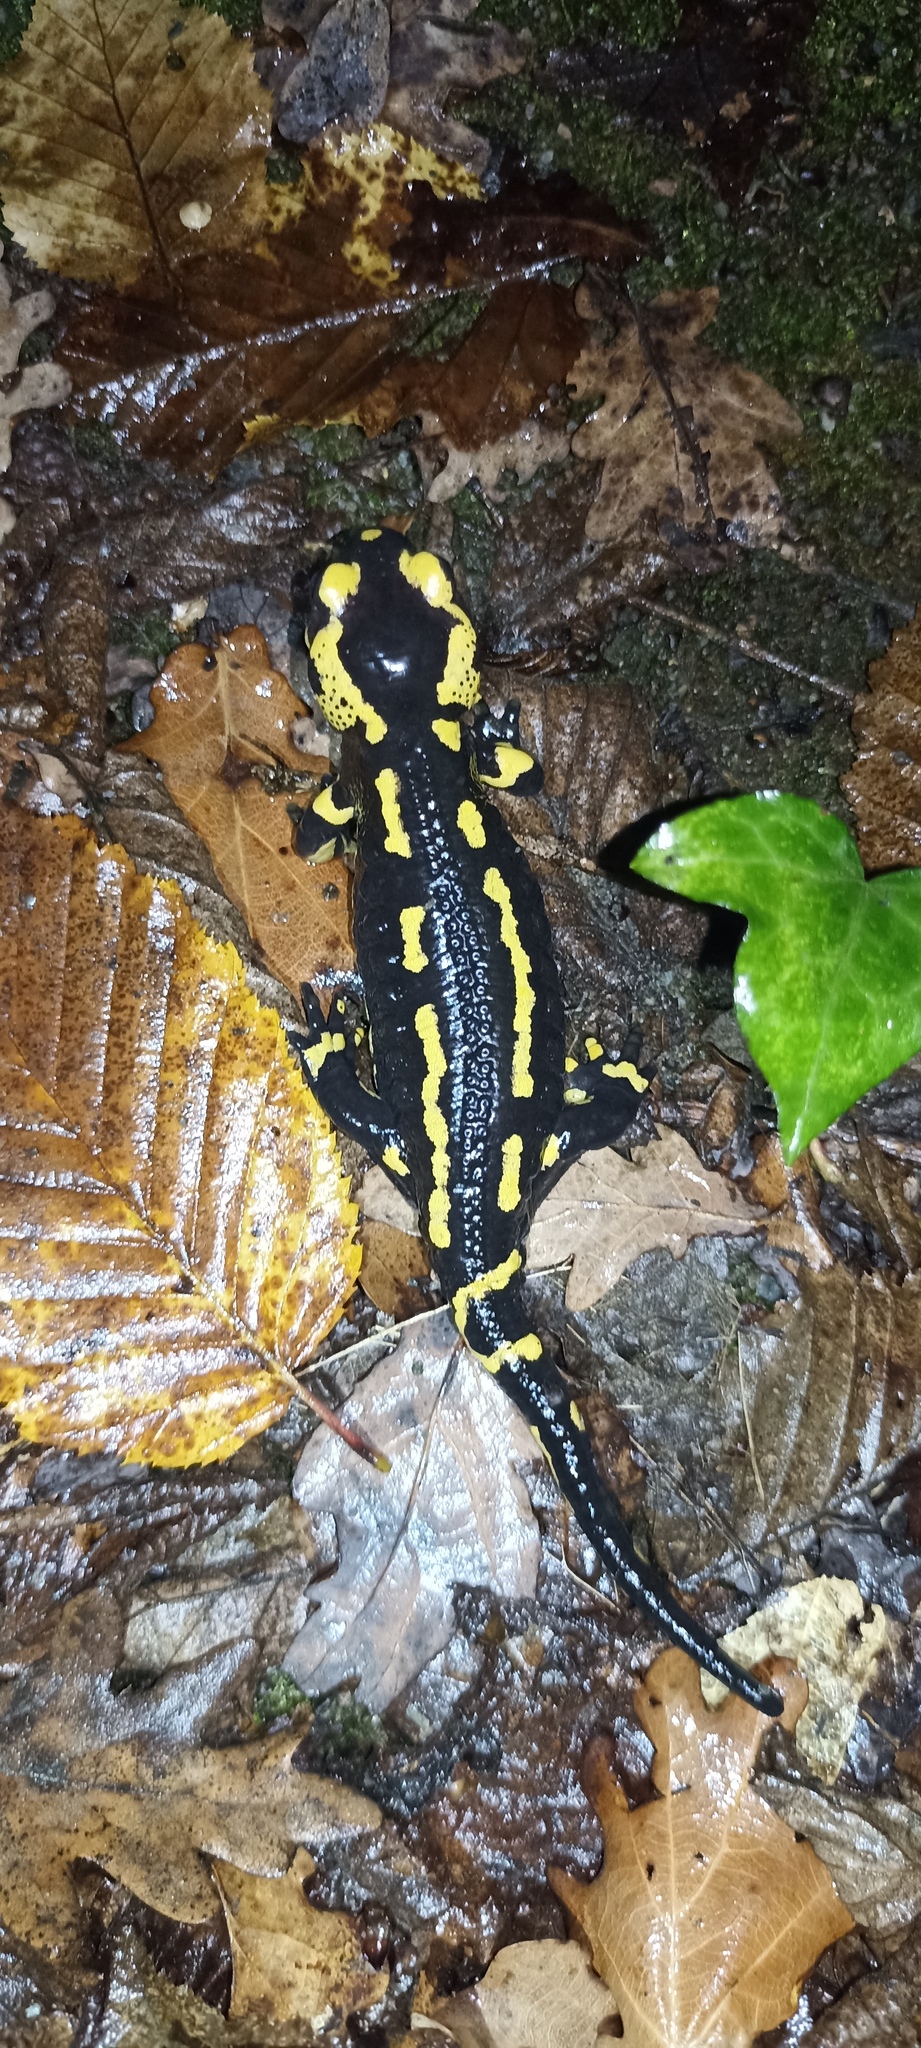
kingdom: Animalia
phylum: Chordata
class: Amphibia
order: Caudata
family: Salamandridae
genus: Salamandra
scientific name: Salamandra salamandra
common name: Fire salamander
